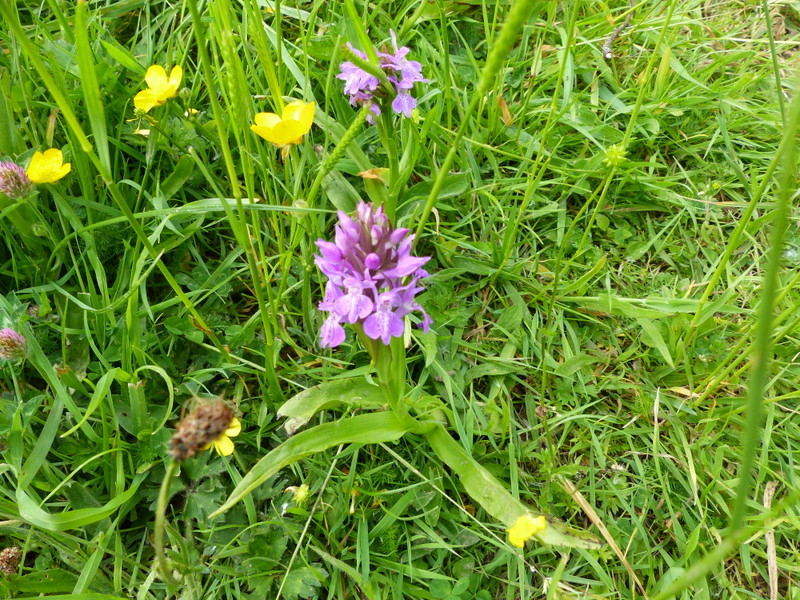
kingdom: Plantae
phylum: Tracheophyta
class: Liliopsida
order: Asparagales
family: Orchidaceae
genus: Dactylorhiza
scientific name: Dactylorhiza majalis
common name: Marsh orchid
